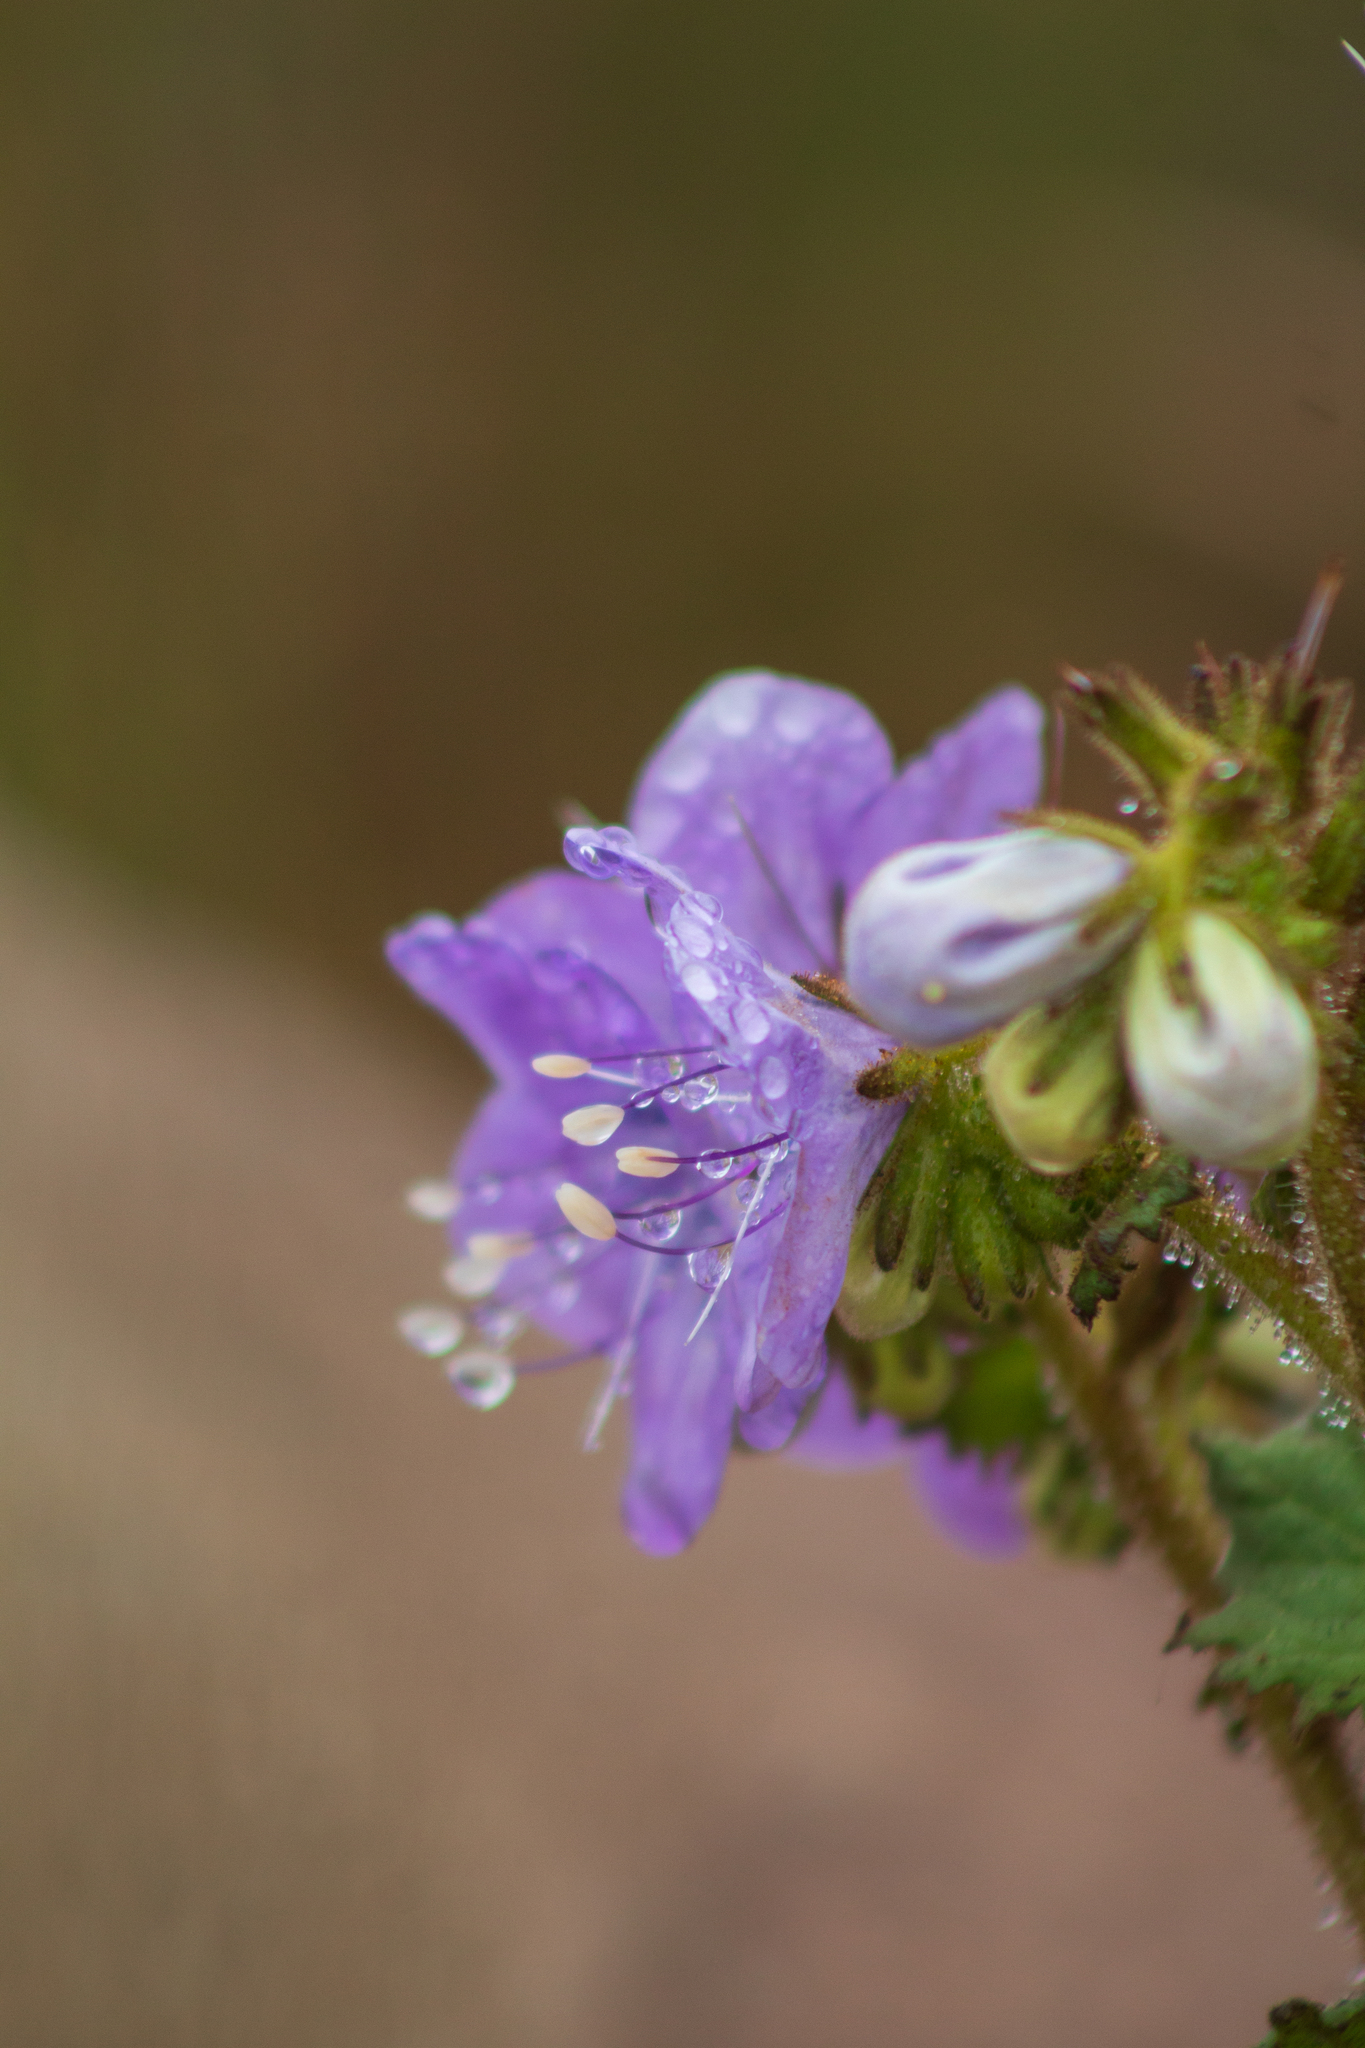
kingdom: Plantae
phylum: Tracheophyta
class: Magnoliopsida
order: Boraginales
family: Hydrophyllaceae
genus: Phacelia
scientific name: Phacelia grandiflora
